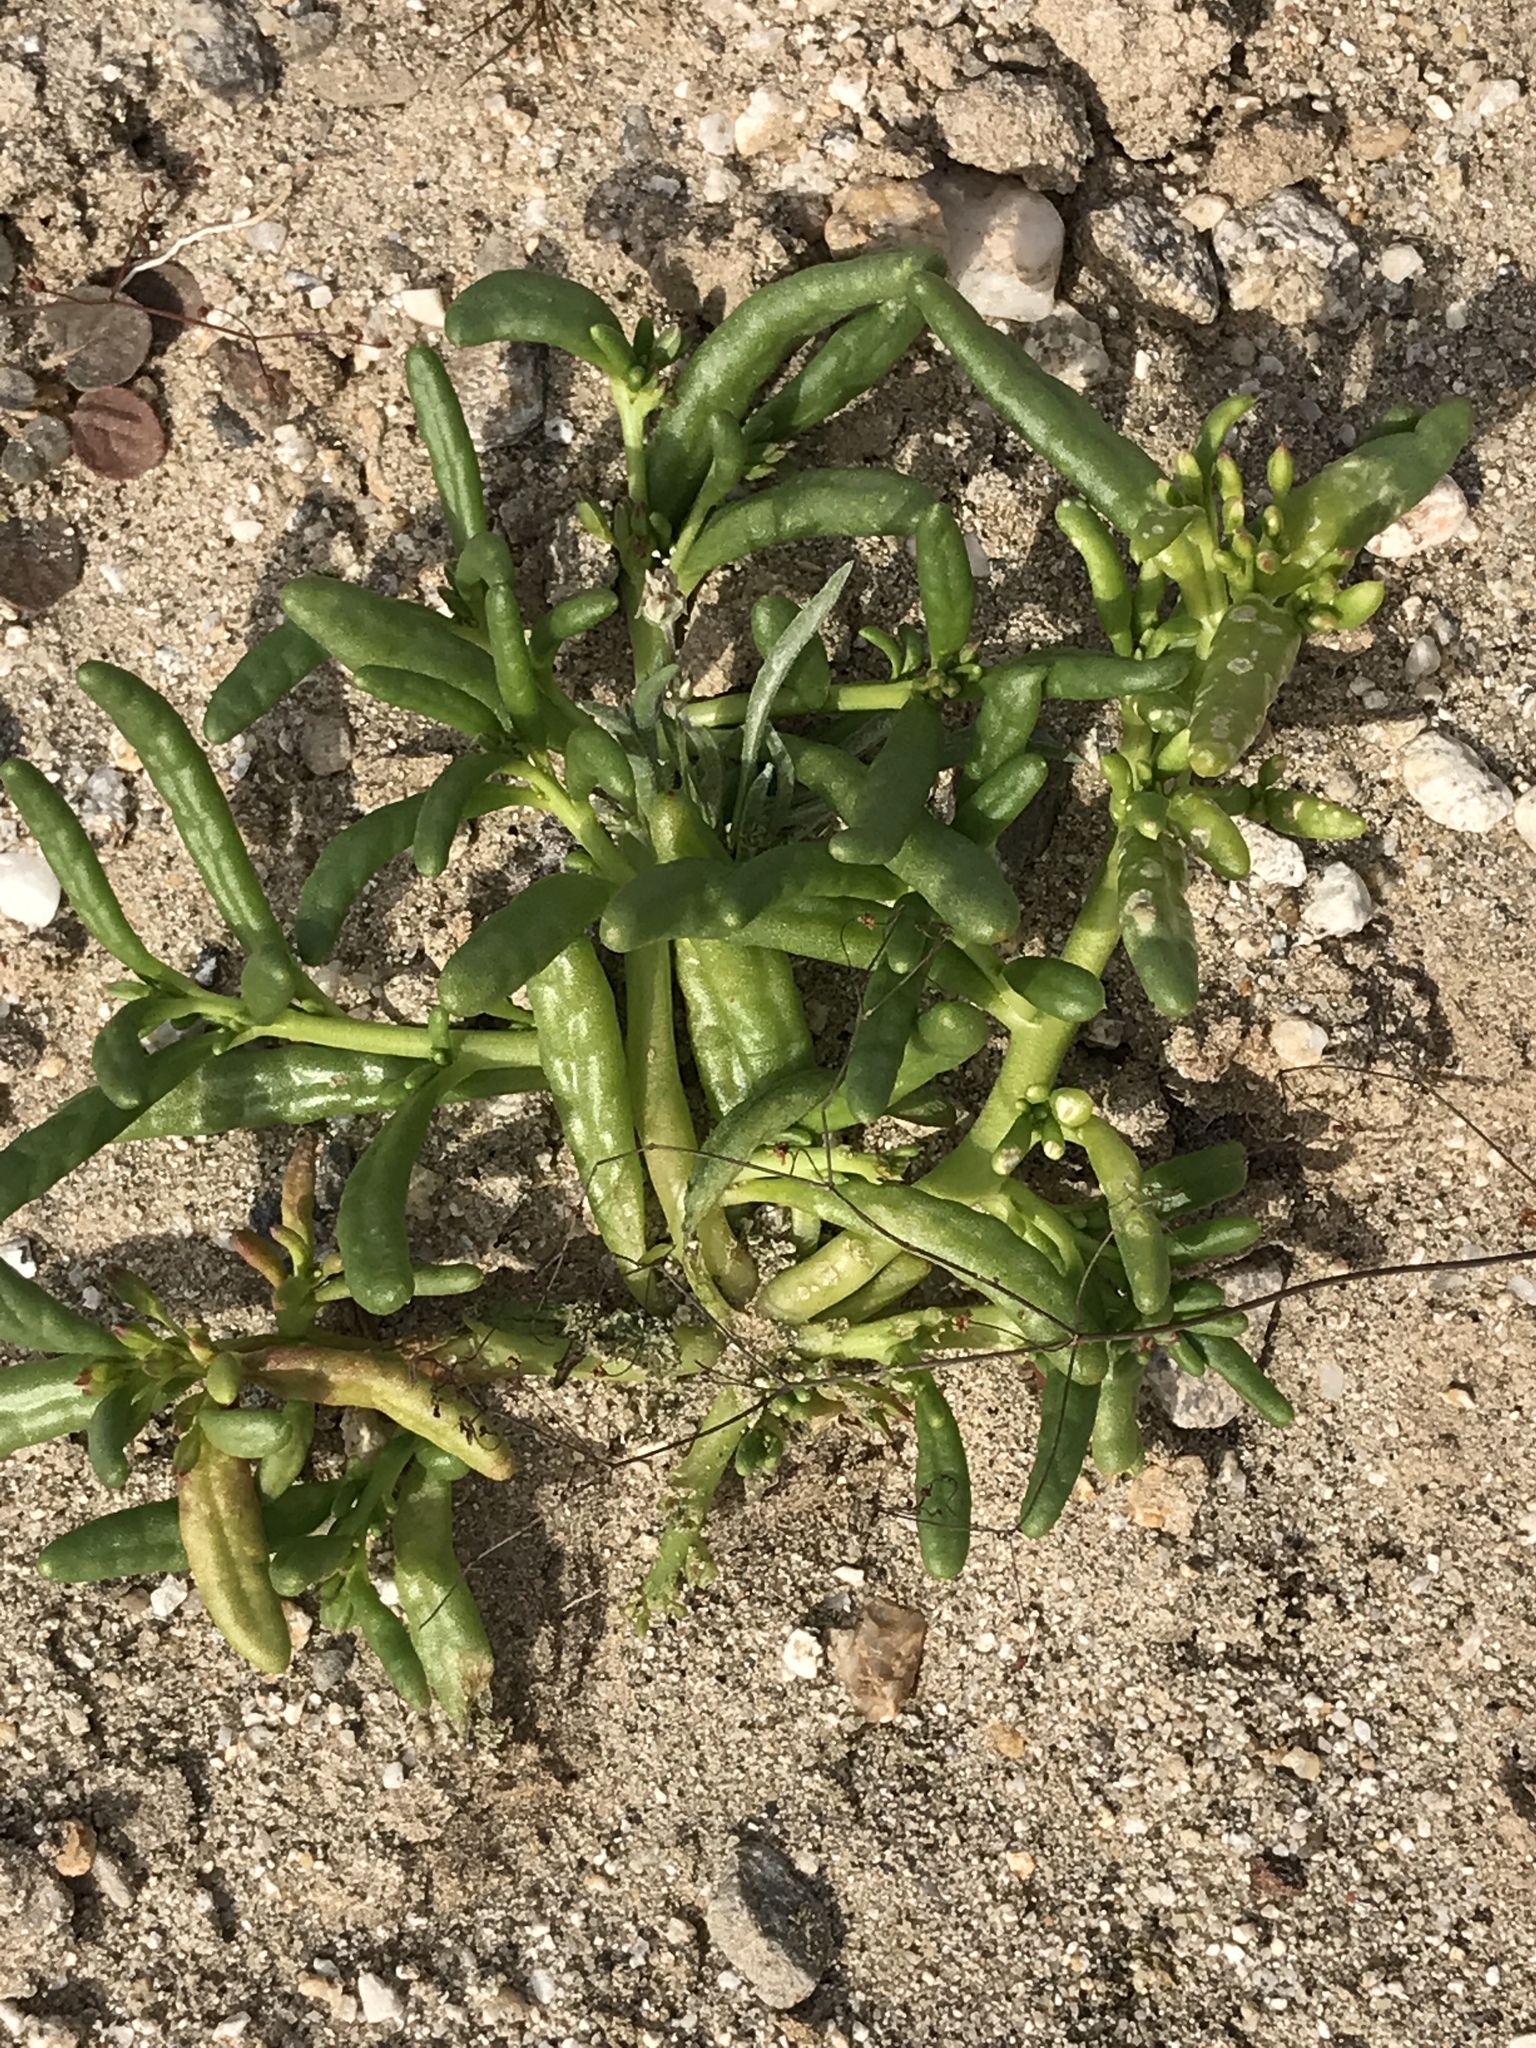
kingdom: Plantae
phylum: Tracheophyta
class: Magnoliopsida
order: Caryophyllales
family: Montiaceae
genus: Thingia
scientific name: Thingia ambigua
